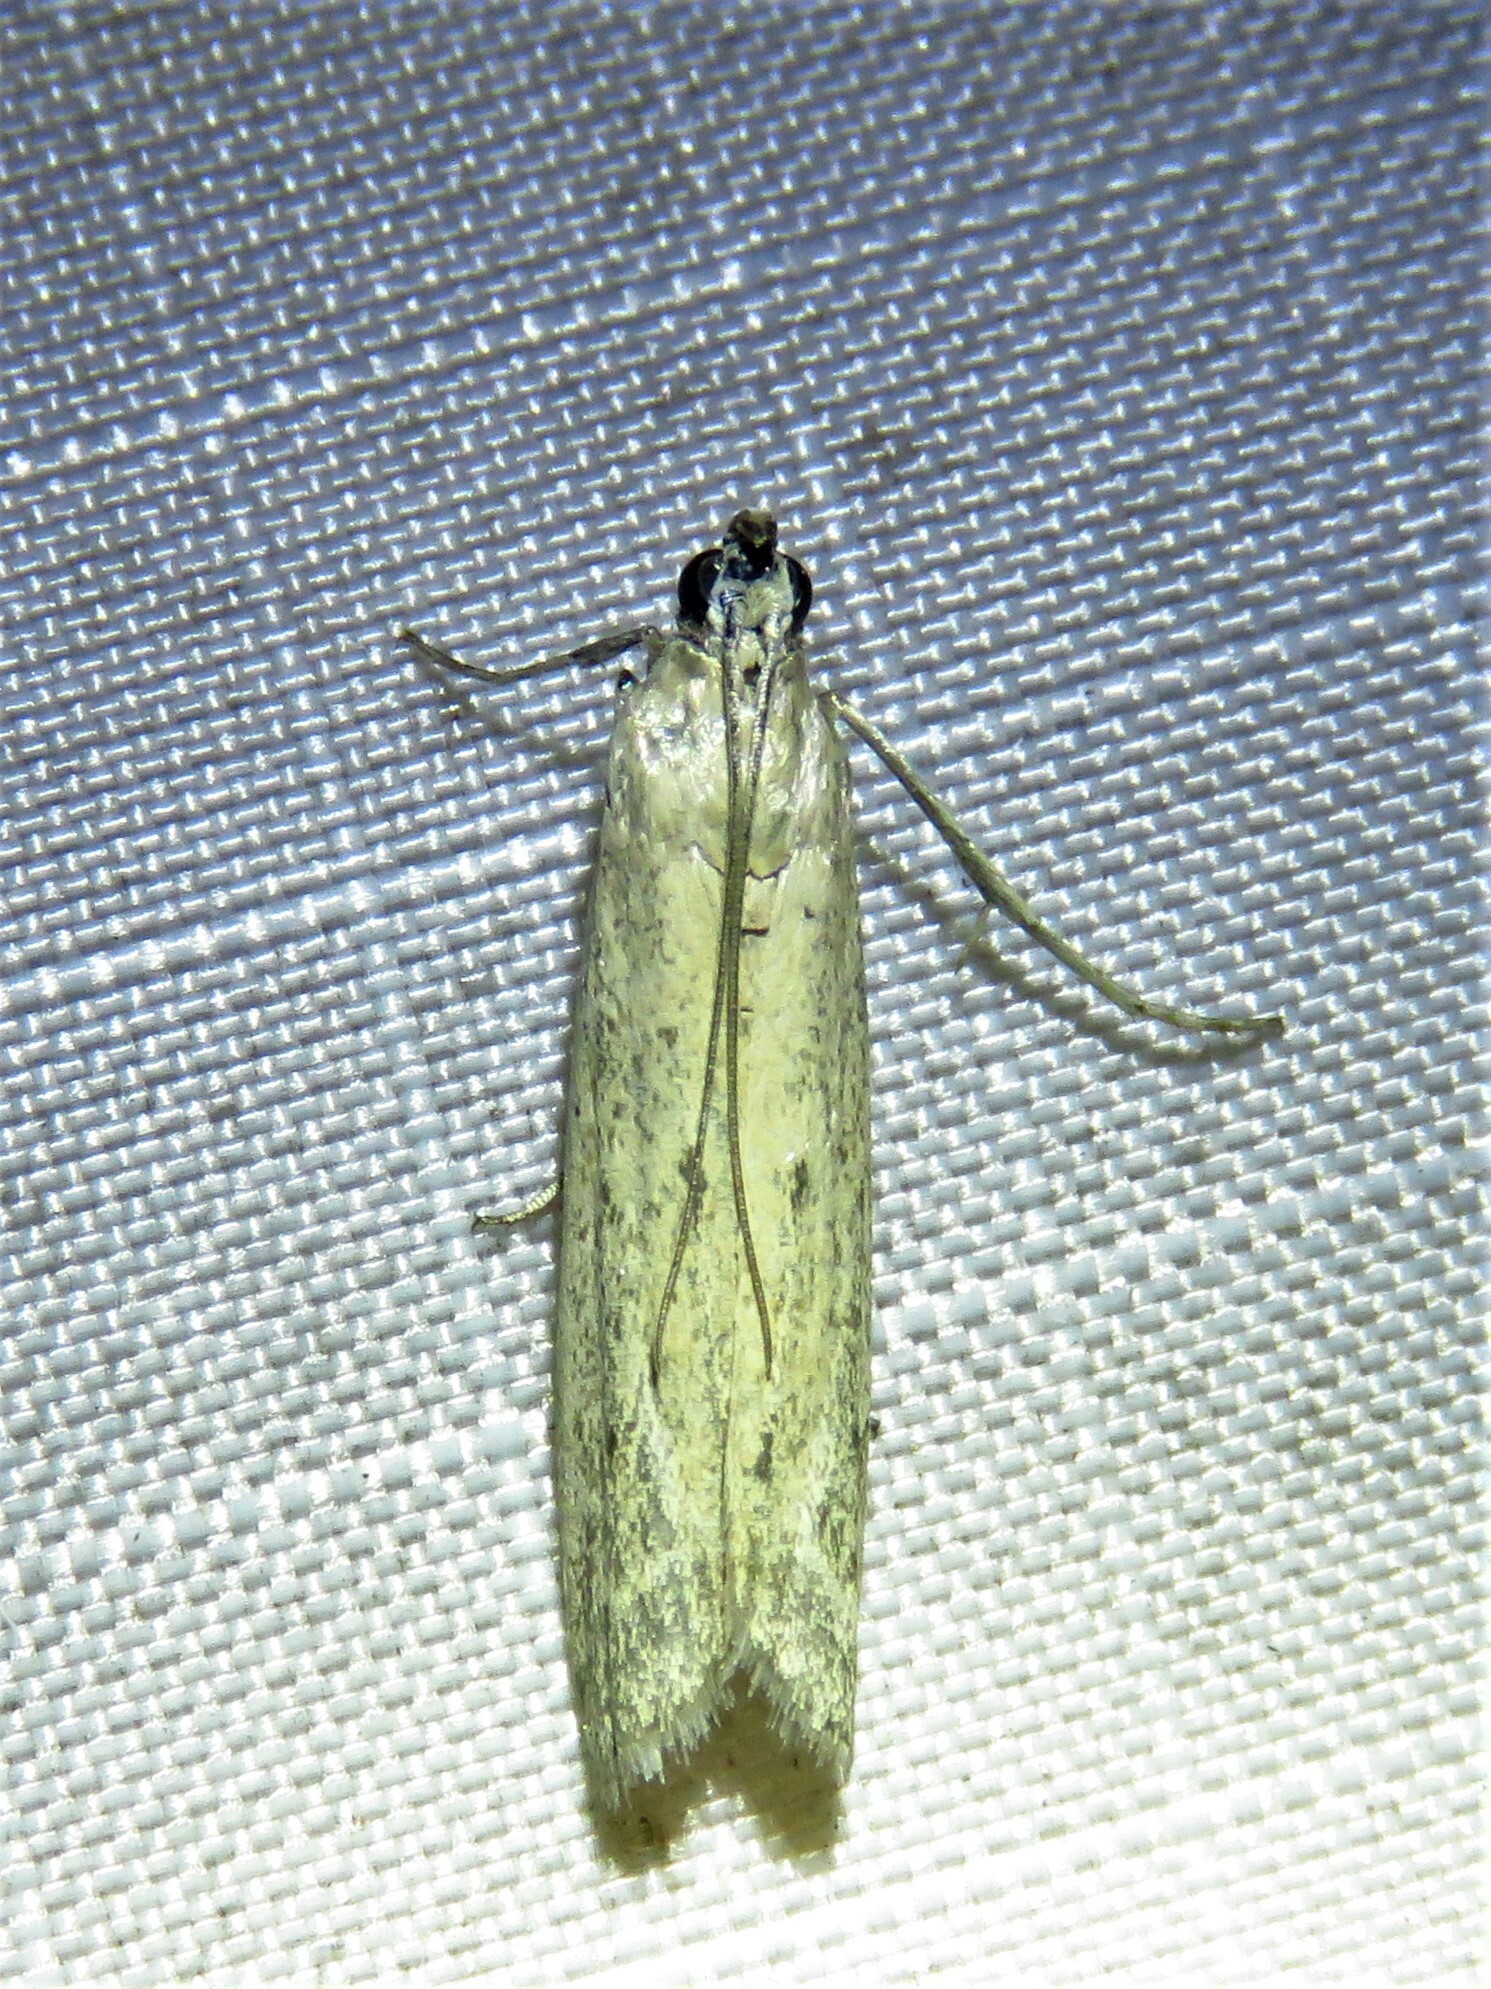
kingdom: Animalia
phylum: Arthropoda
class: Insecta
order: Lepidoptera
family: Pyralidae
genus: Homoeosoma
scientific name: Homoeosoma electella
